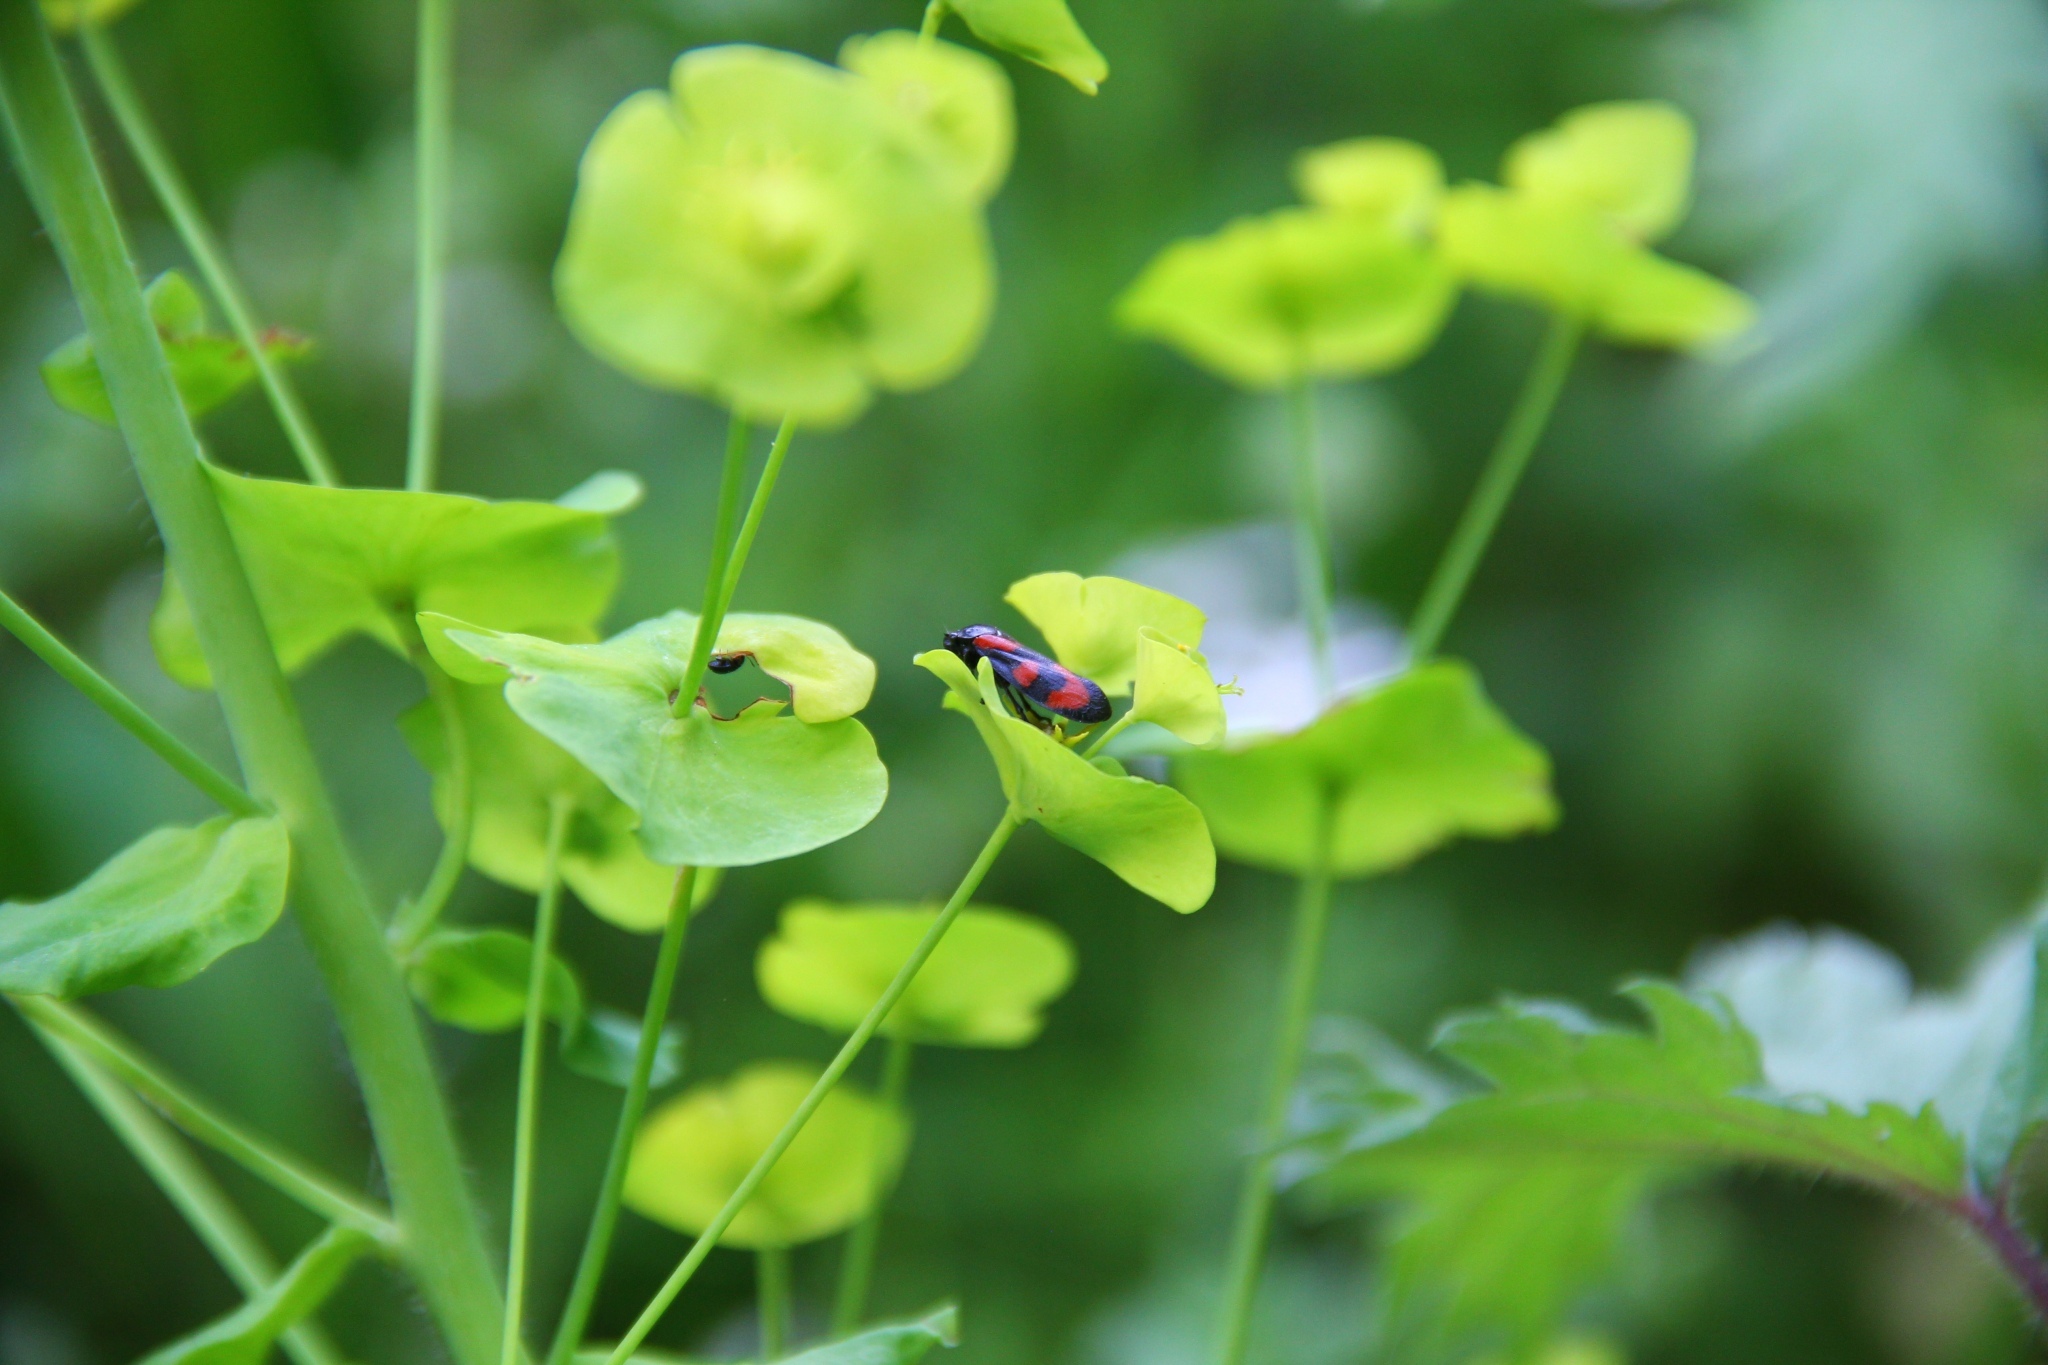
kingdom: Animalia
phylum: Arthropoda
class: Insecta
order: Hemiptera
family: Cercopidae
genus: Cercopis
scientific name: Cercopis vulnerata
